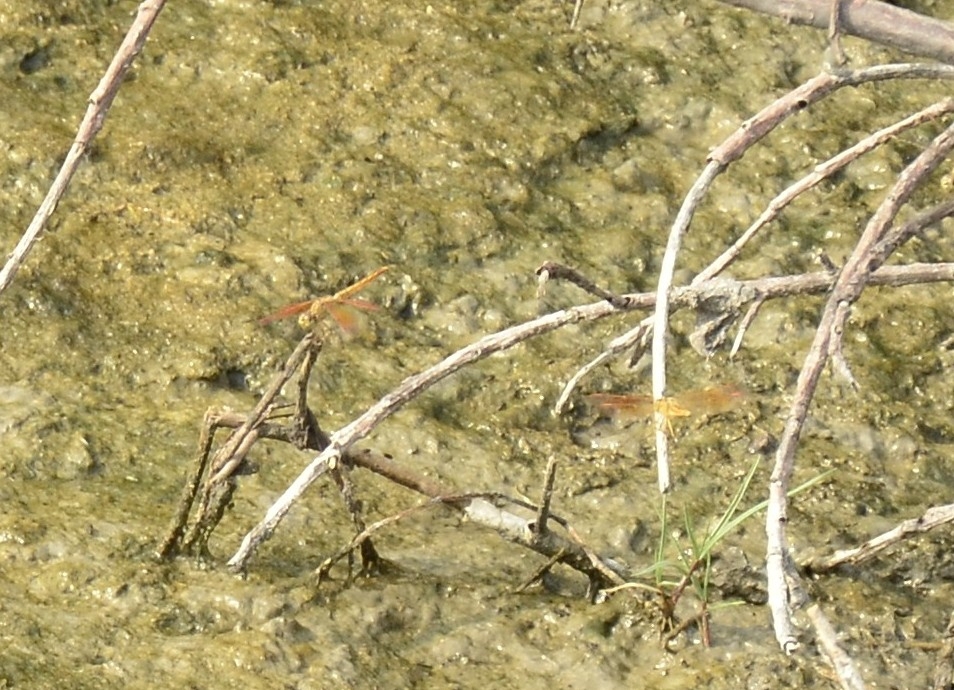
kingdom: Animalia
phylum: Arthropoda
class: Insecta
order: Odonata
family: Libellulidae
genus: Brachythemis
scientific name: Brachythemis contaminata
